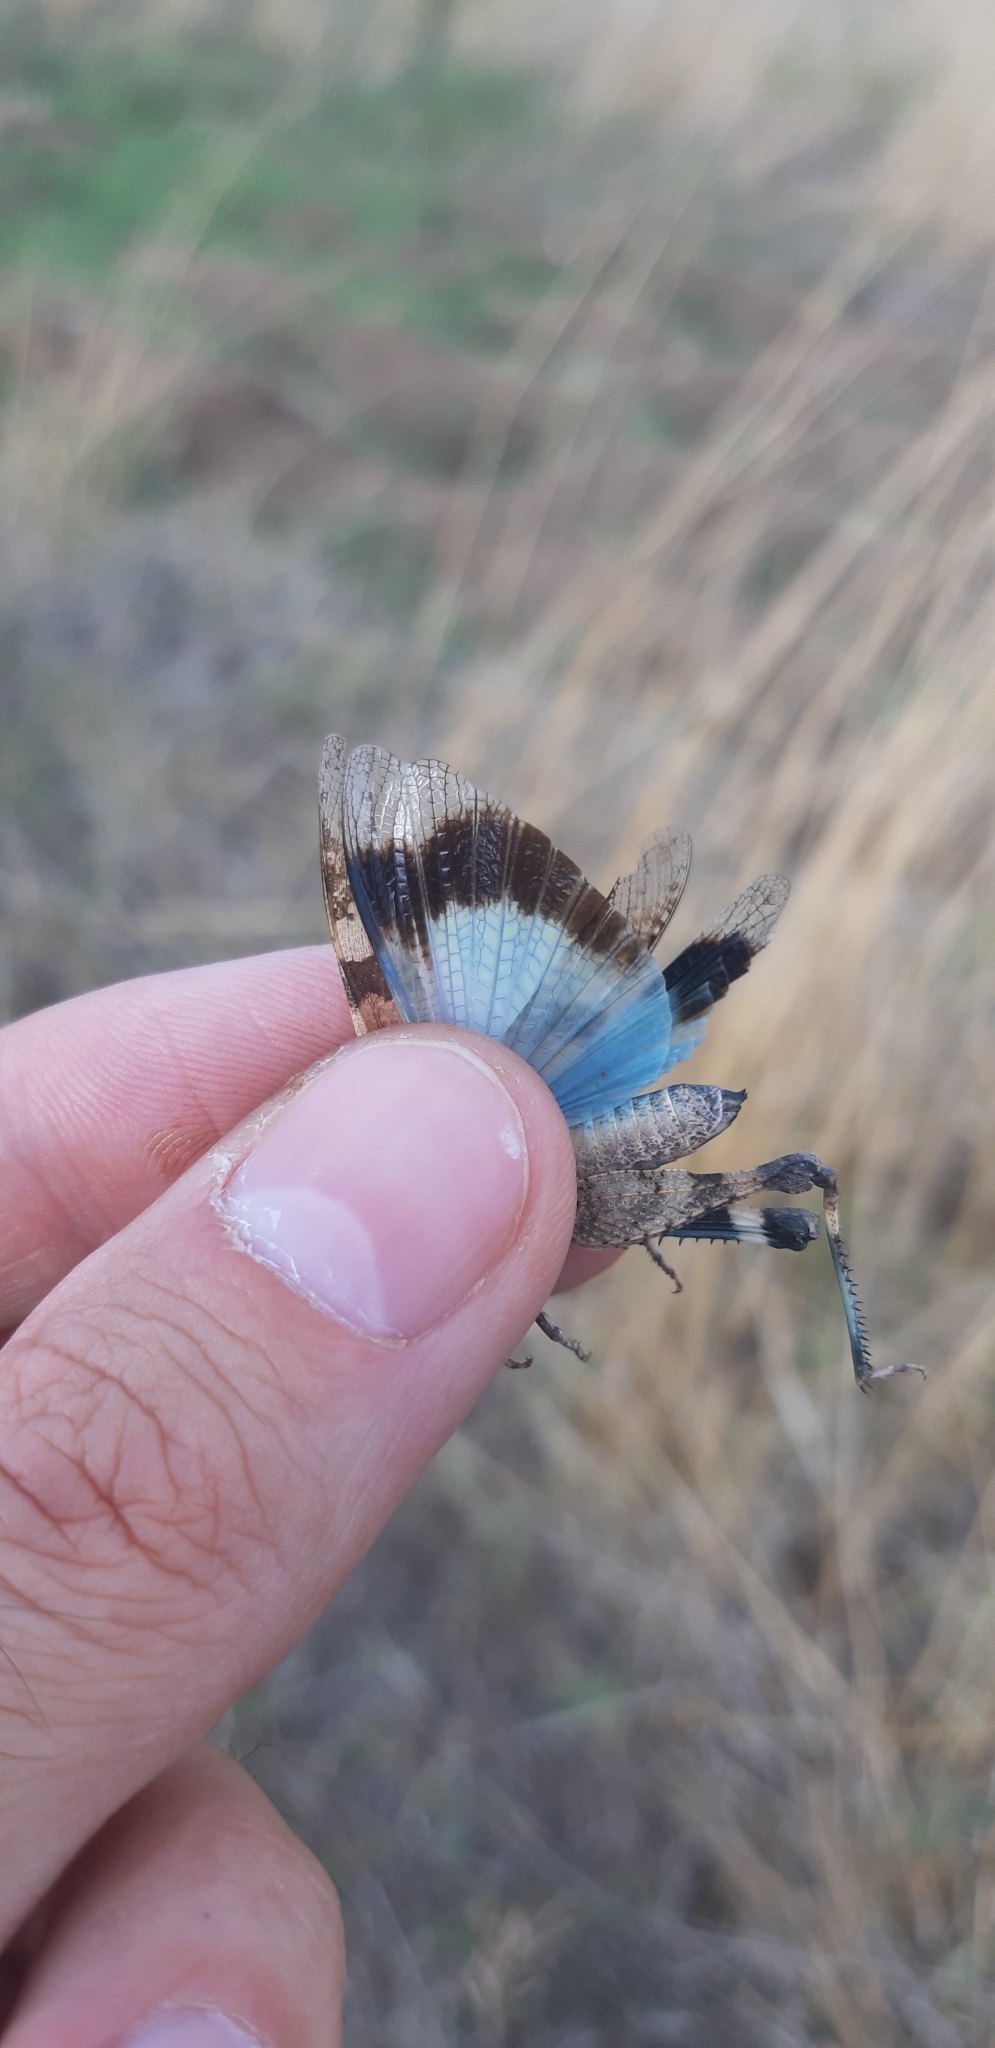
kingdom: Animalia
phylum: Arthropoda
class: Insecta
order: Orthoptera
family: Acrididae
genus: Oedipoda
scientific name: Oedipoda caerulescens
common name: Blue-winged grasshopper
